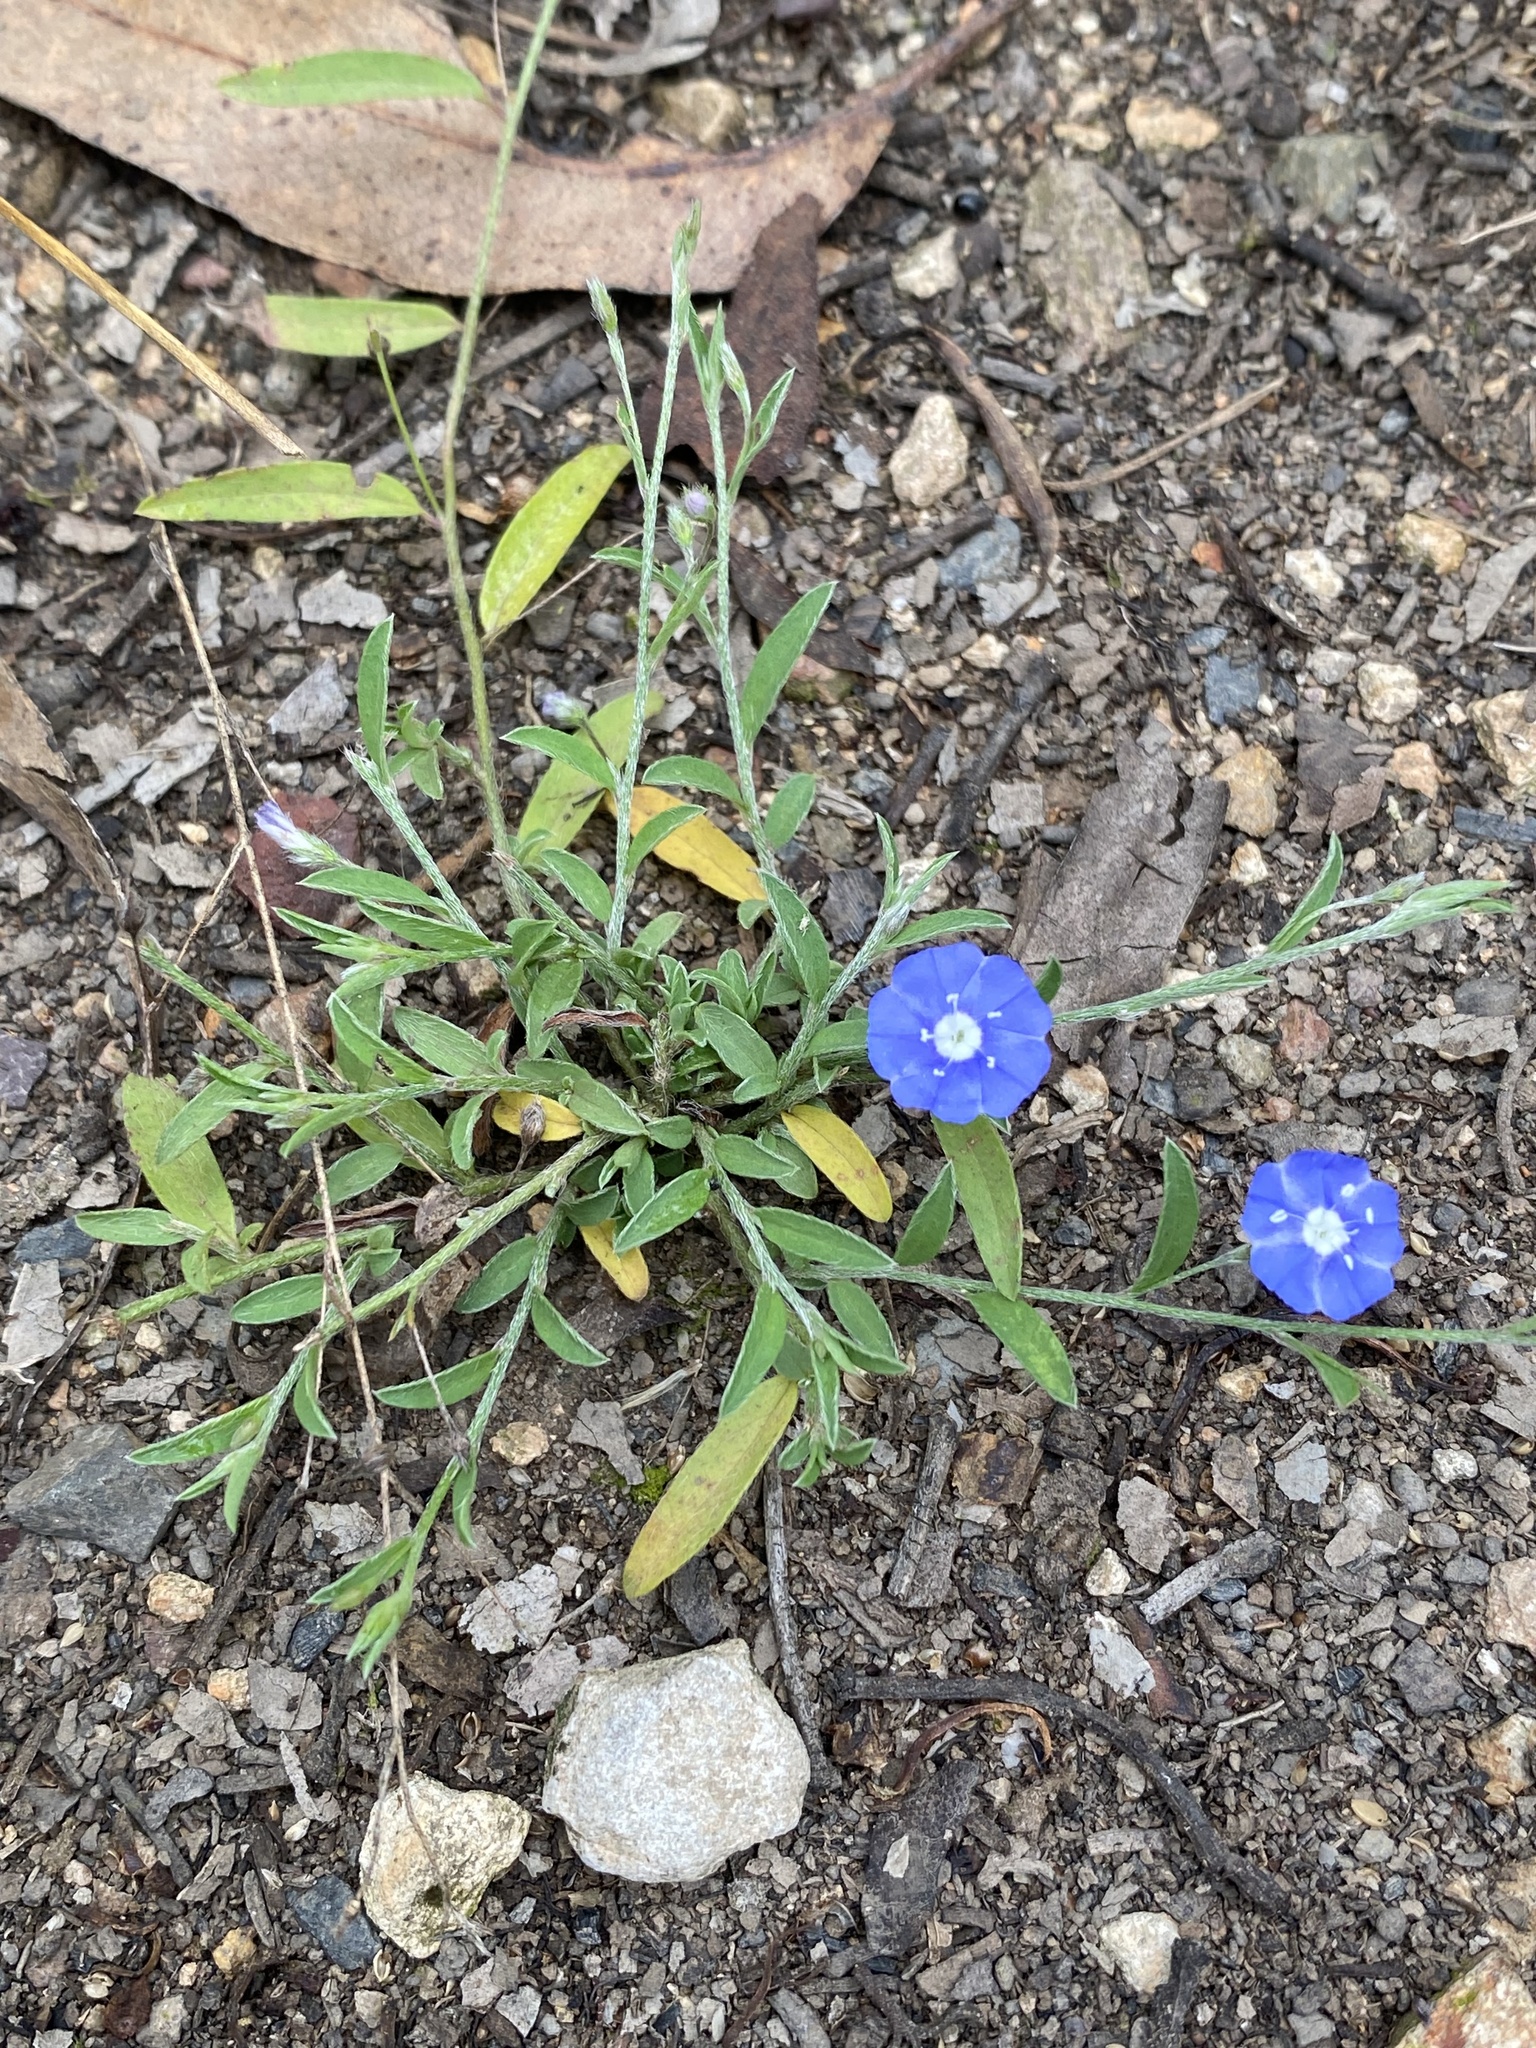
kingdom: Plantae
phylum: Tracheophyta
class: Magnoliopsida
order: Solanales
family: Convolvulaceae
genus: Evolvulus
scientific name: Evolvulus alsinoides
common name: Slender dwarf morning-glory
